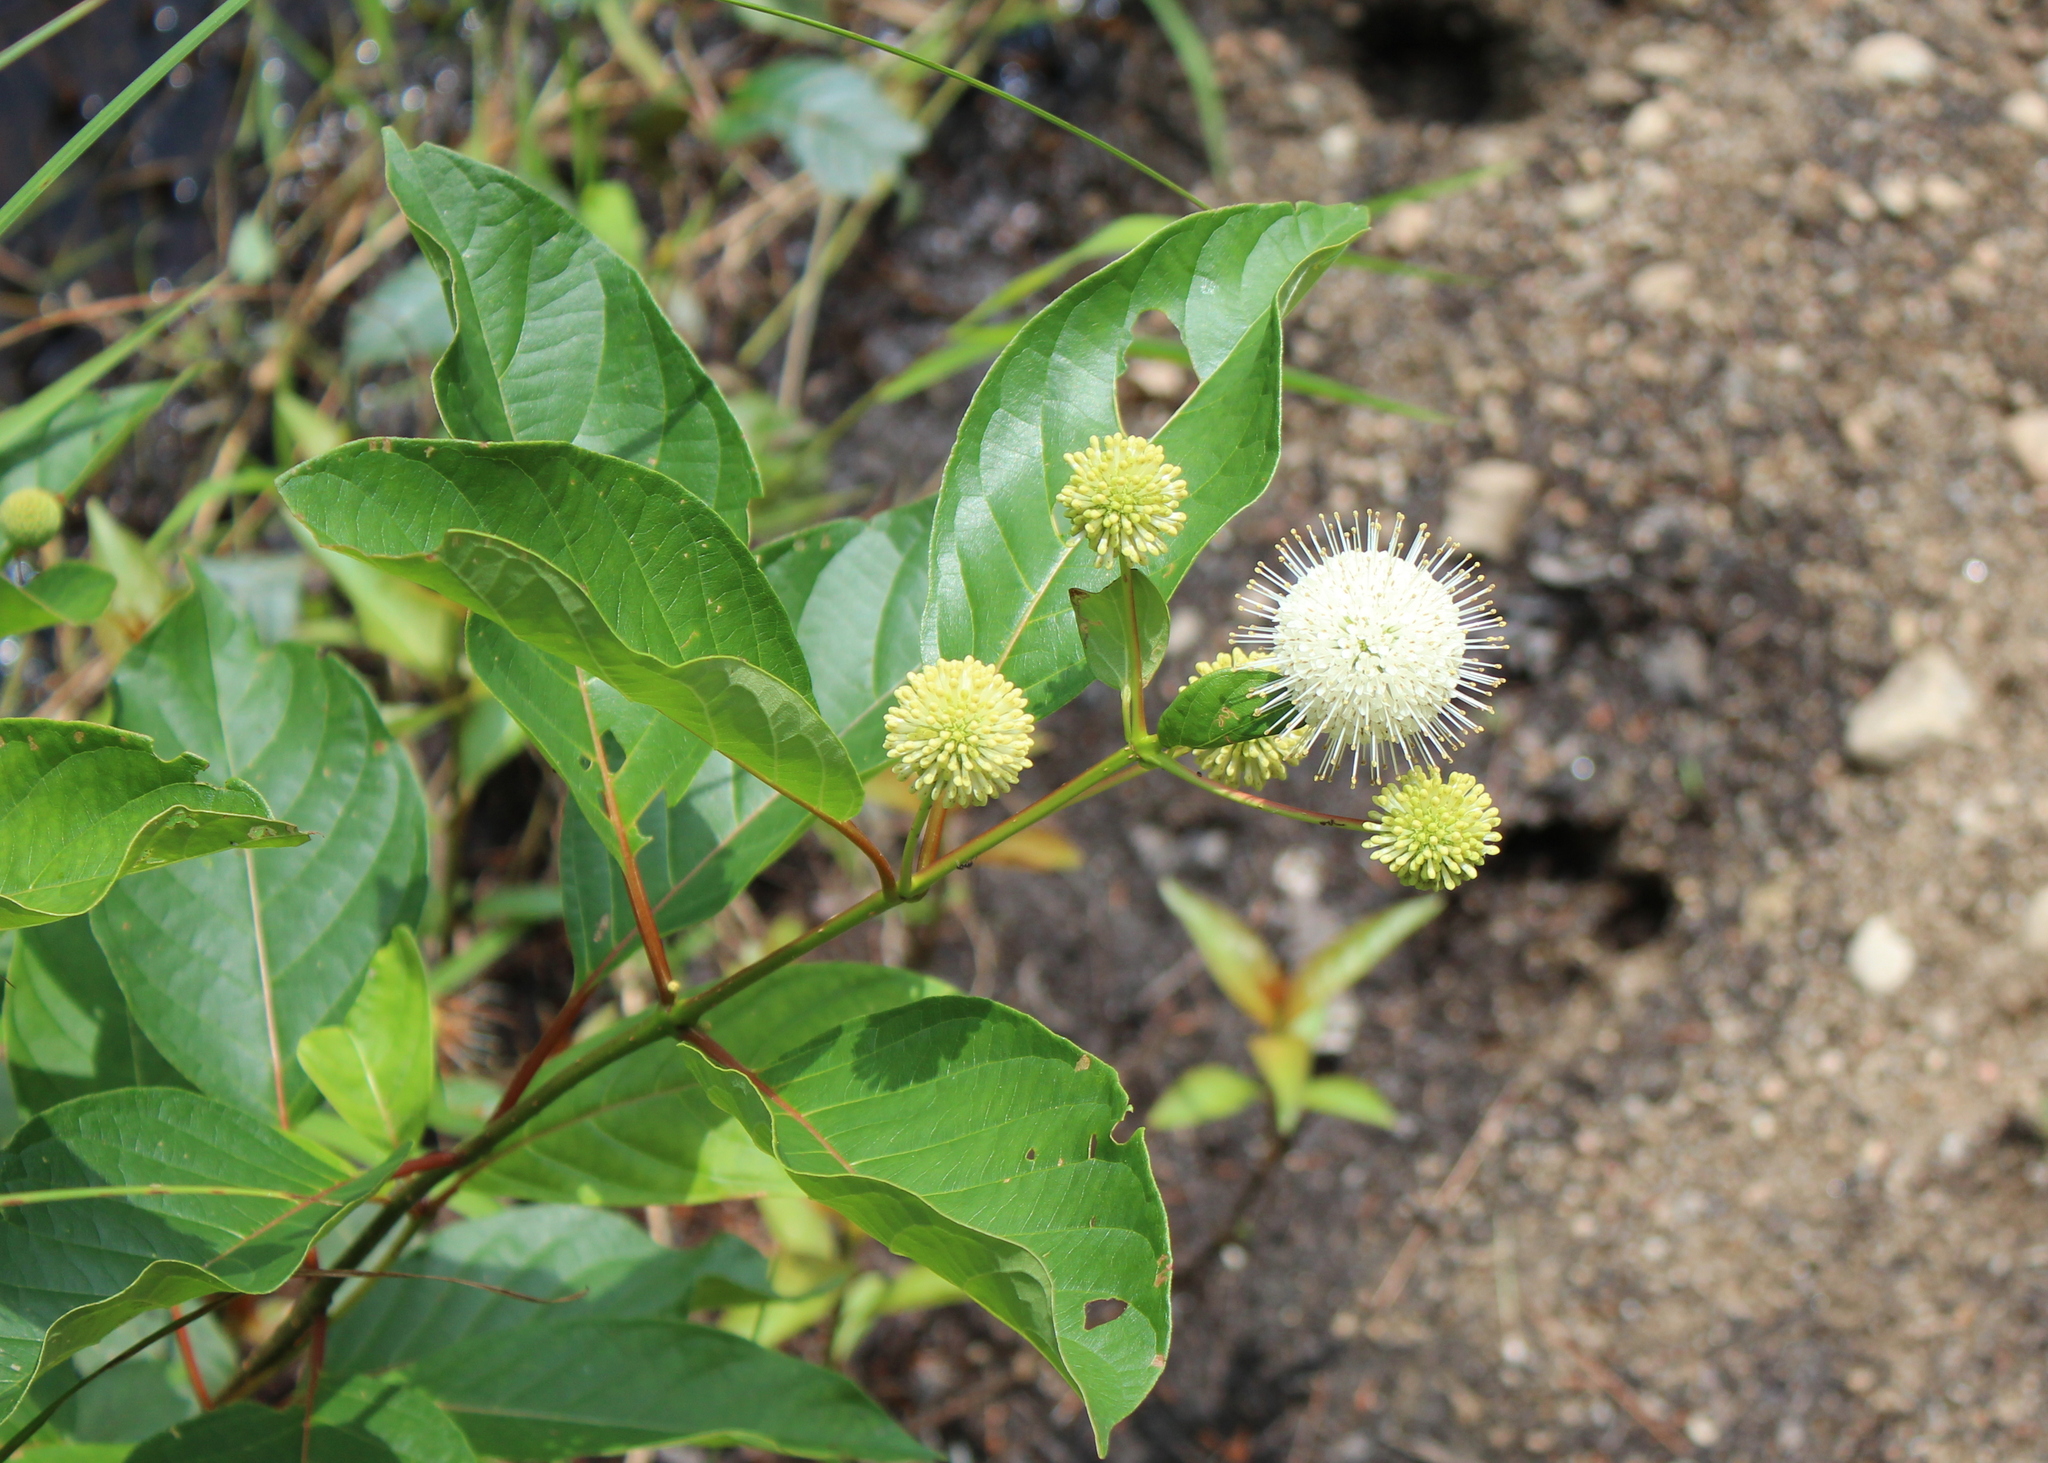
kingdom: Plantae
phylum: Tracheophyta
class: Magnoliopsida
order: Gentianales
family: Rubiaceae
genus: Cephalanthus
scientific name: Cephalanthus occidentalis
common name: Button-willow
